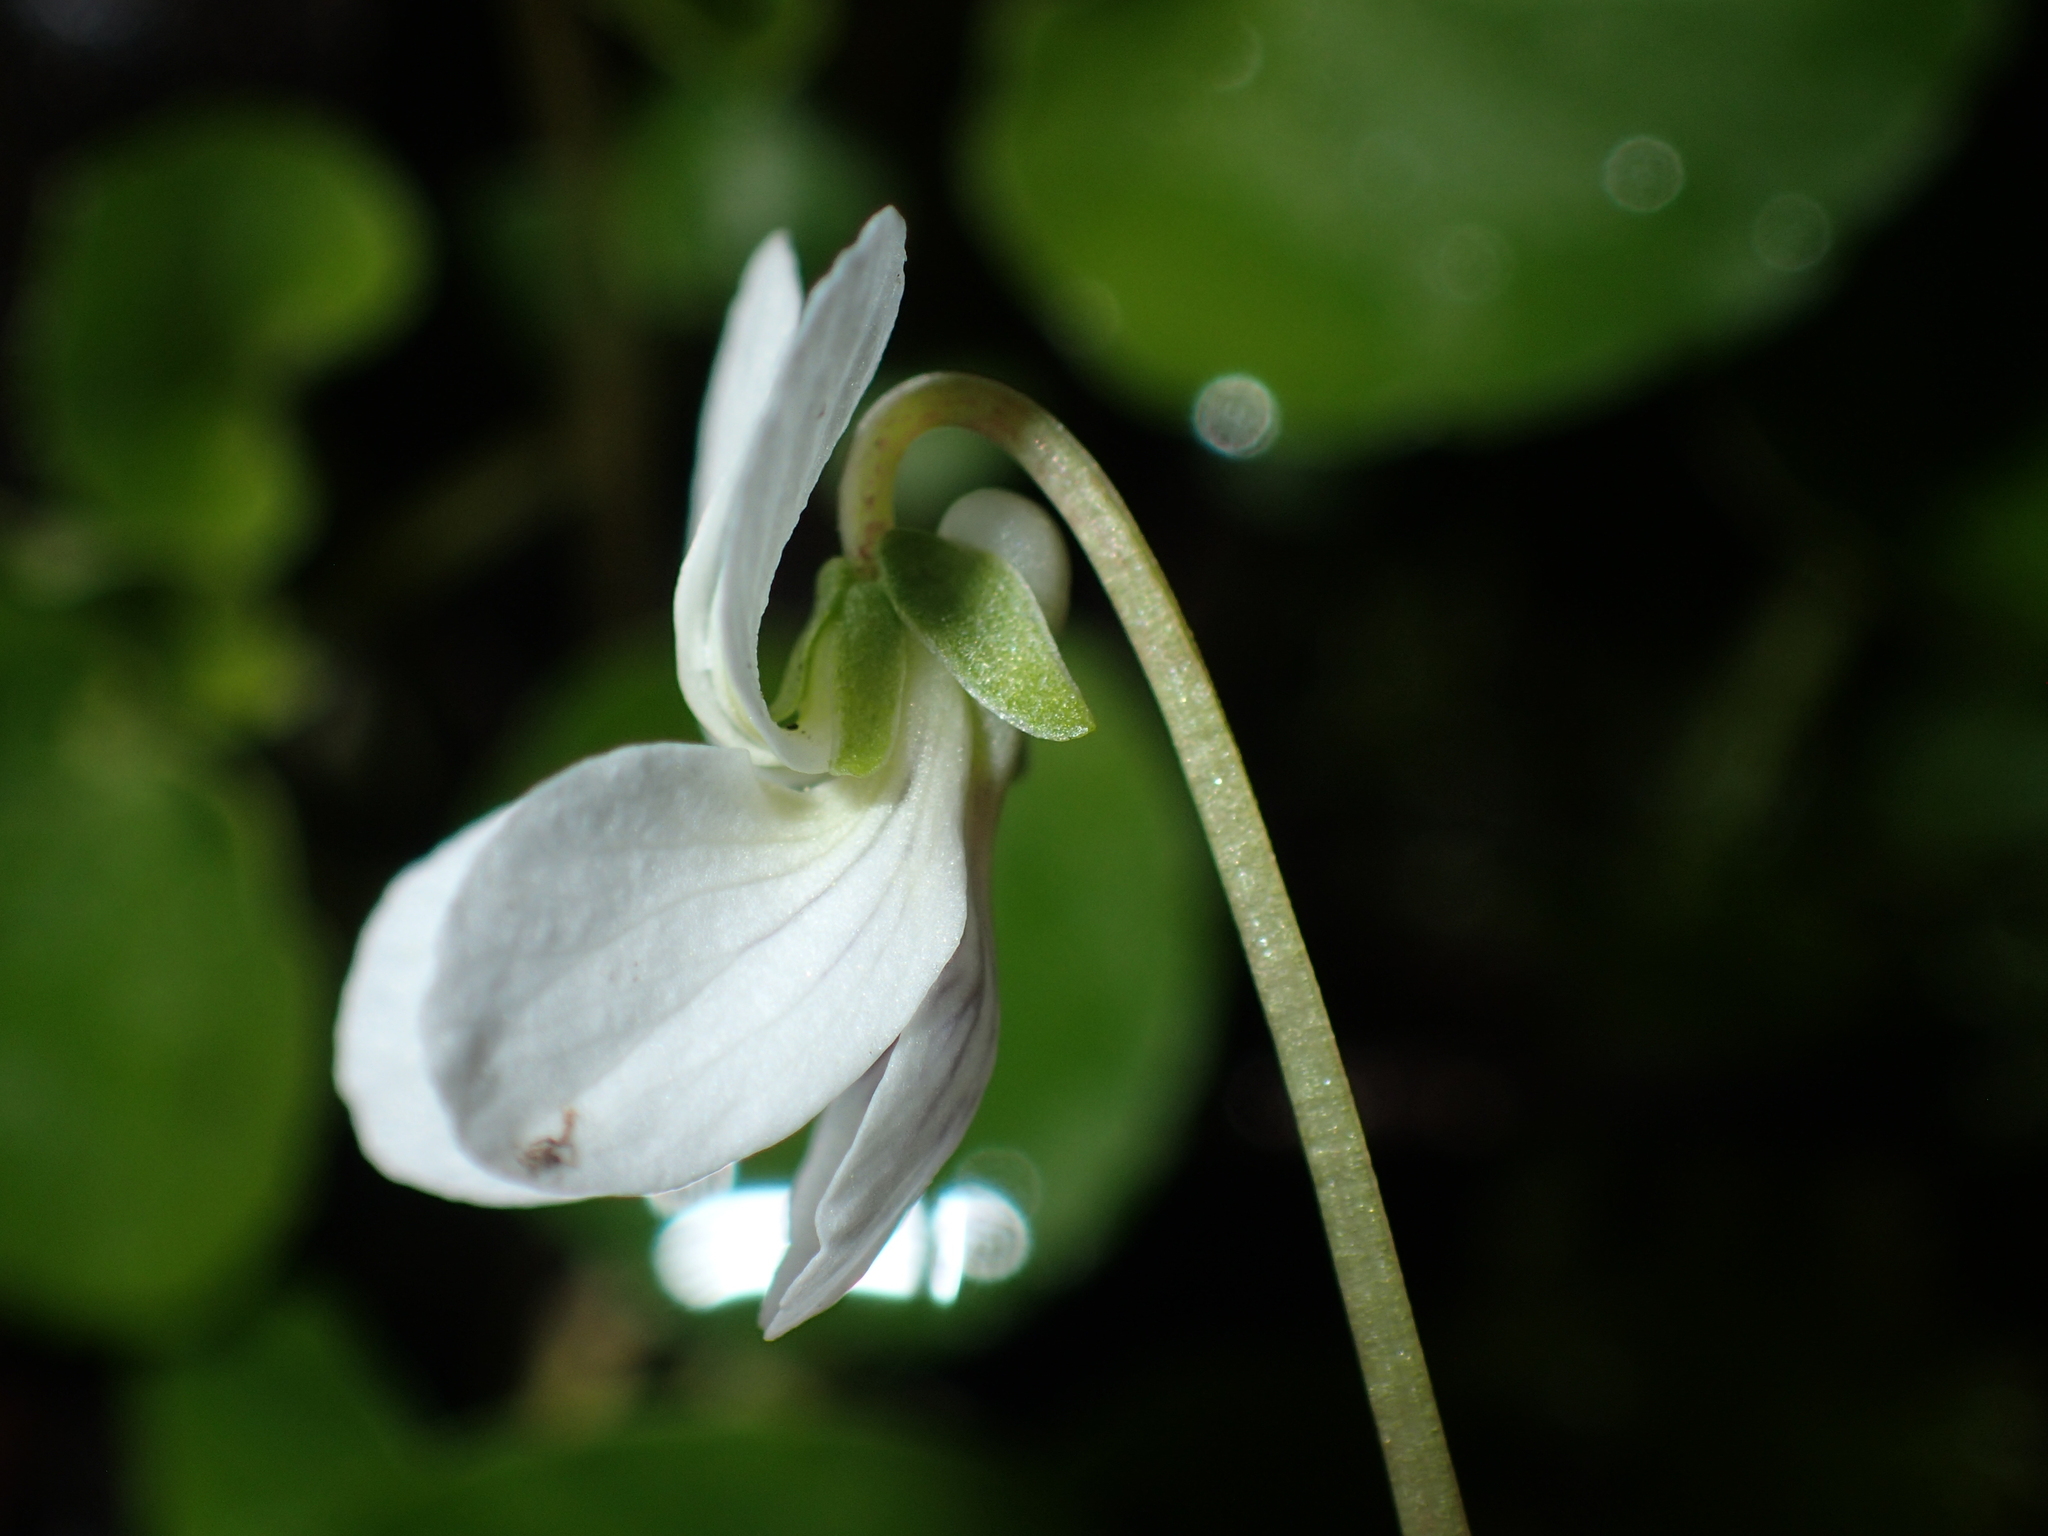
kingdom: Plantae
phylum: Tracheophyta
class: Magnoliopsida
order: Malpighiales
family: Violaceae
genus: Viola
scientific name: Viola incognita
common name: Largeleaf white violet
